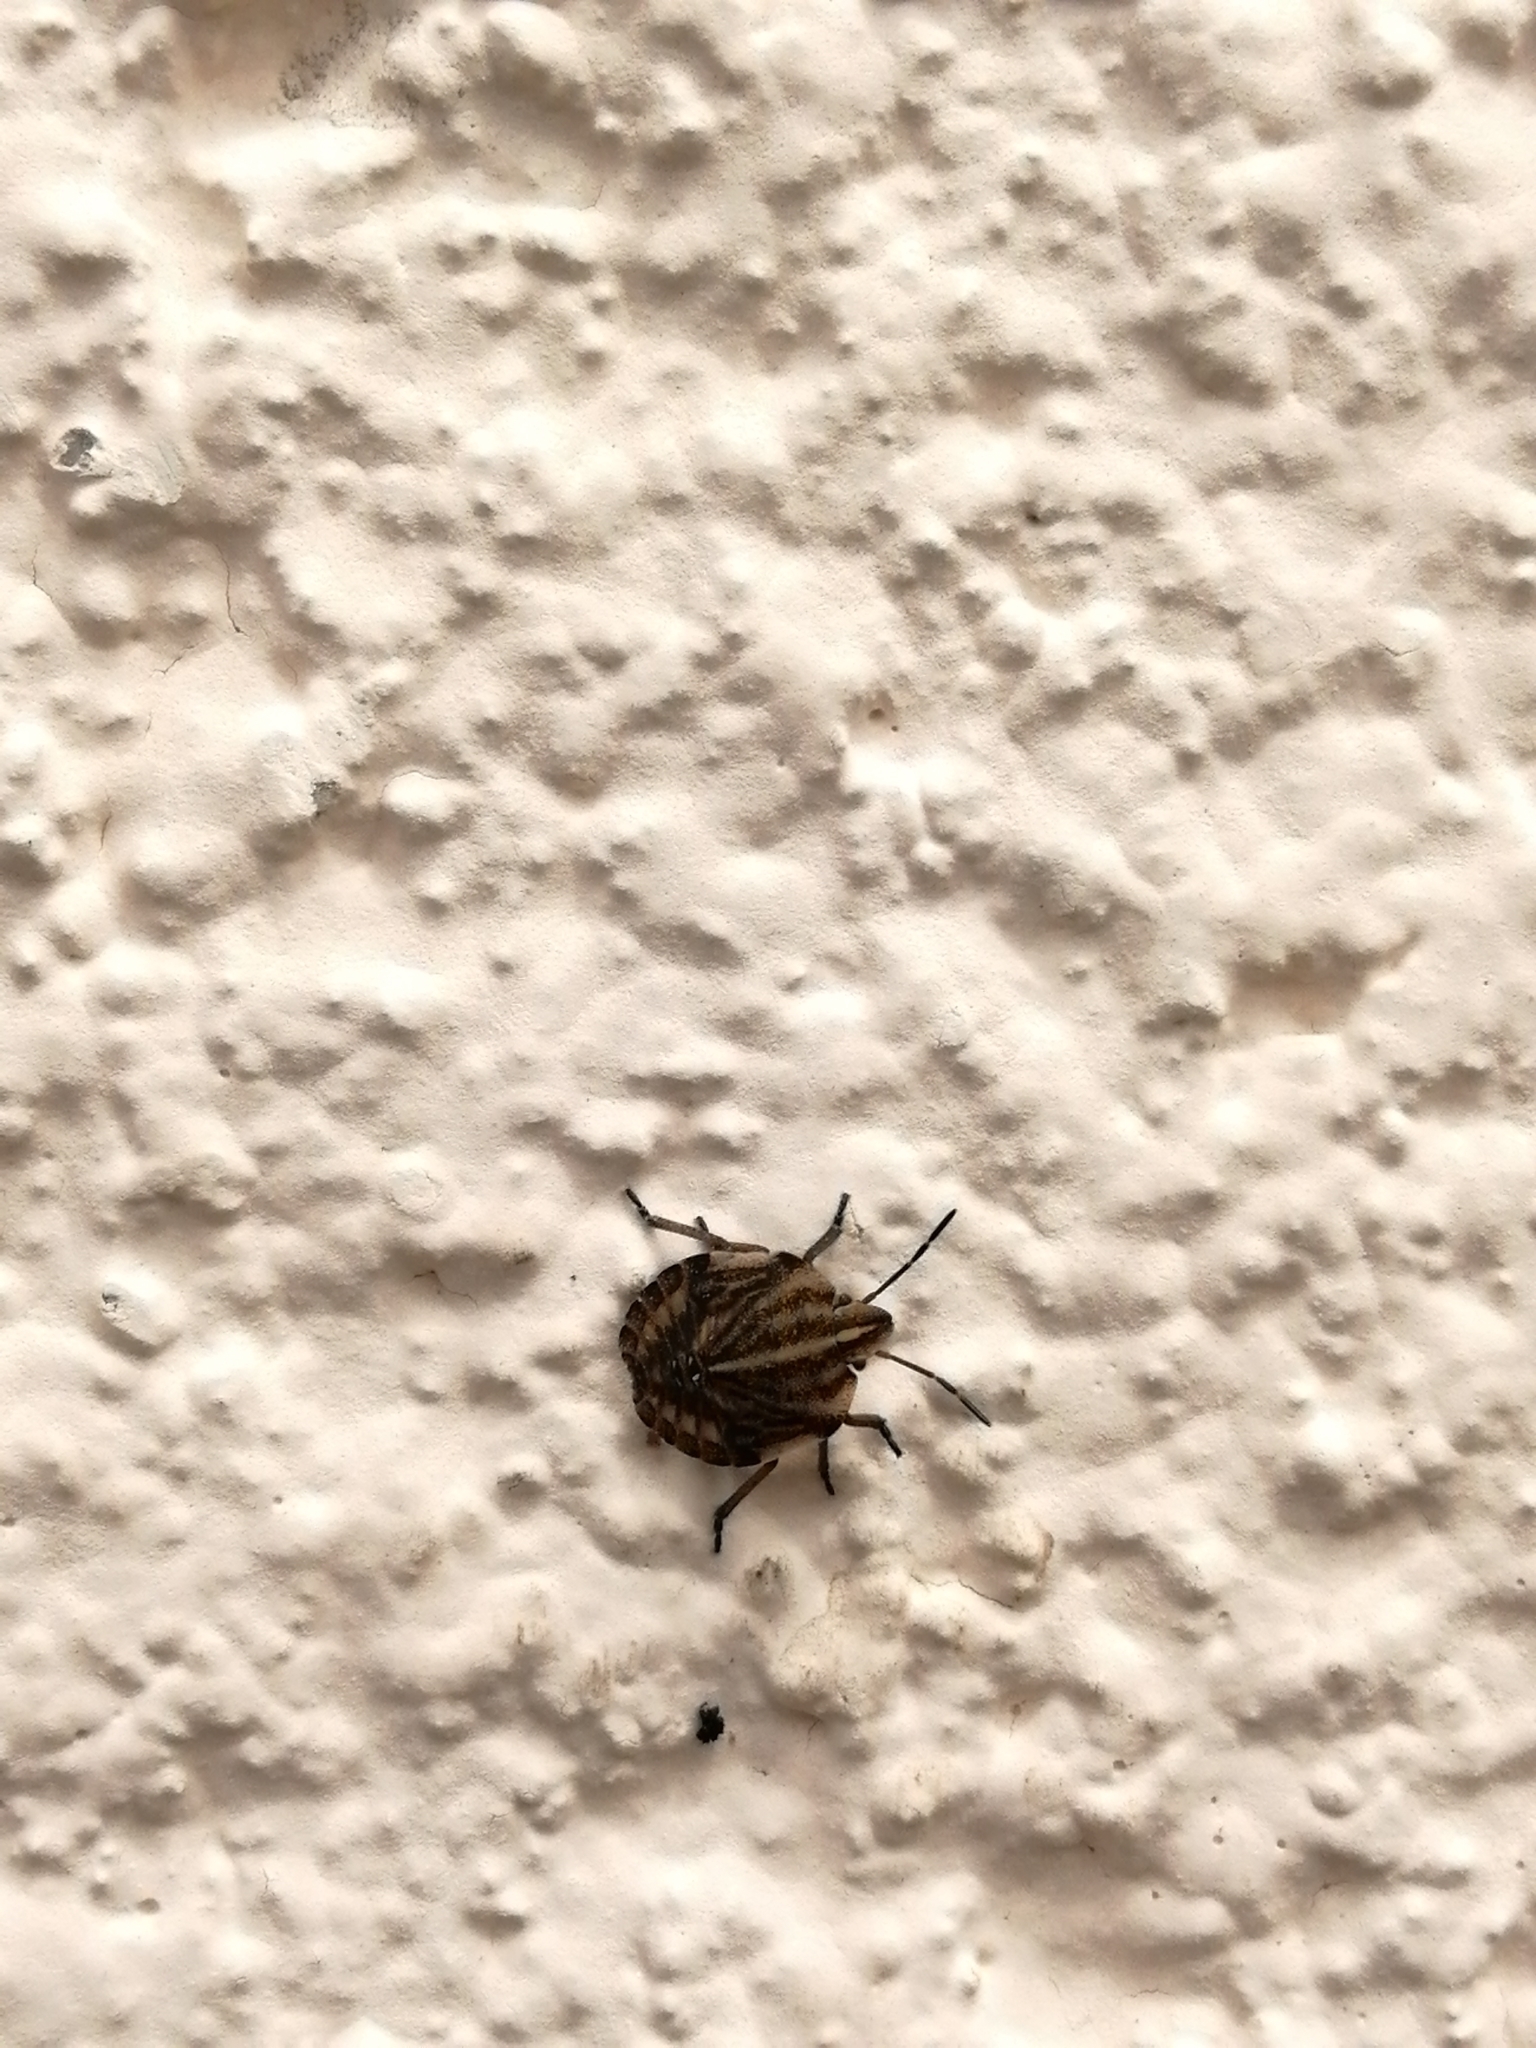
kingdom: Animalia
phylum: Arthropoda
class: Insecta
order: Hemiptera
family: Pentatomidae
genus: Graphosoma
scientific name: Graphosoma italicum
